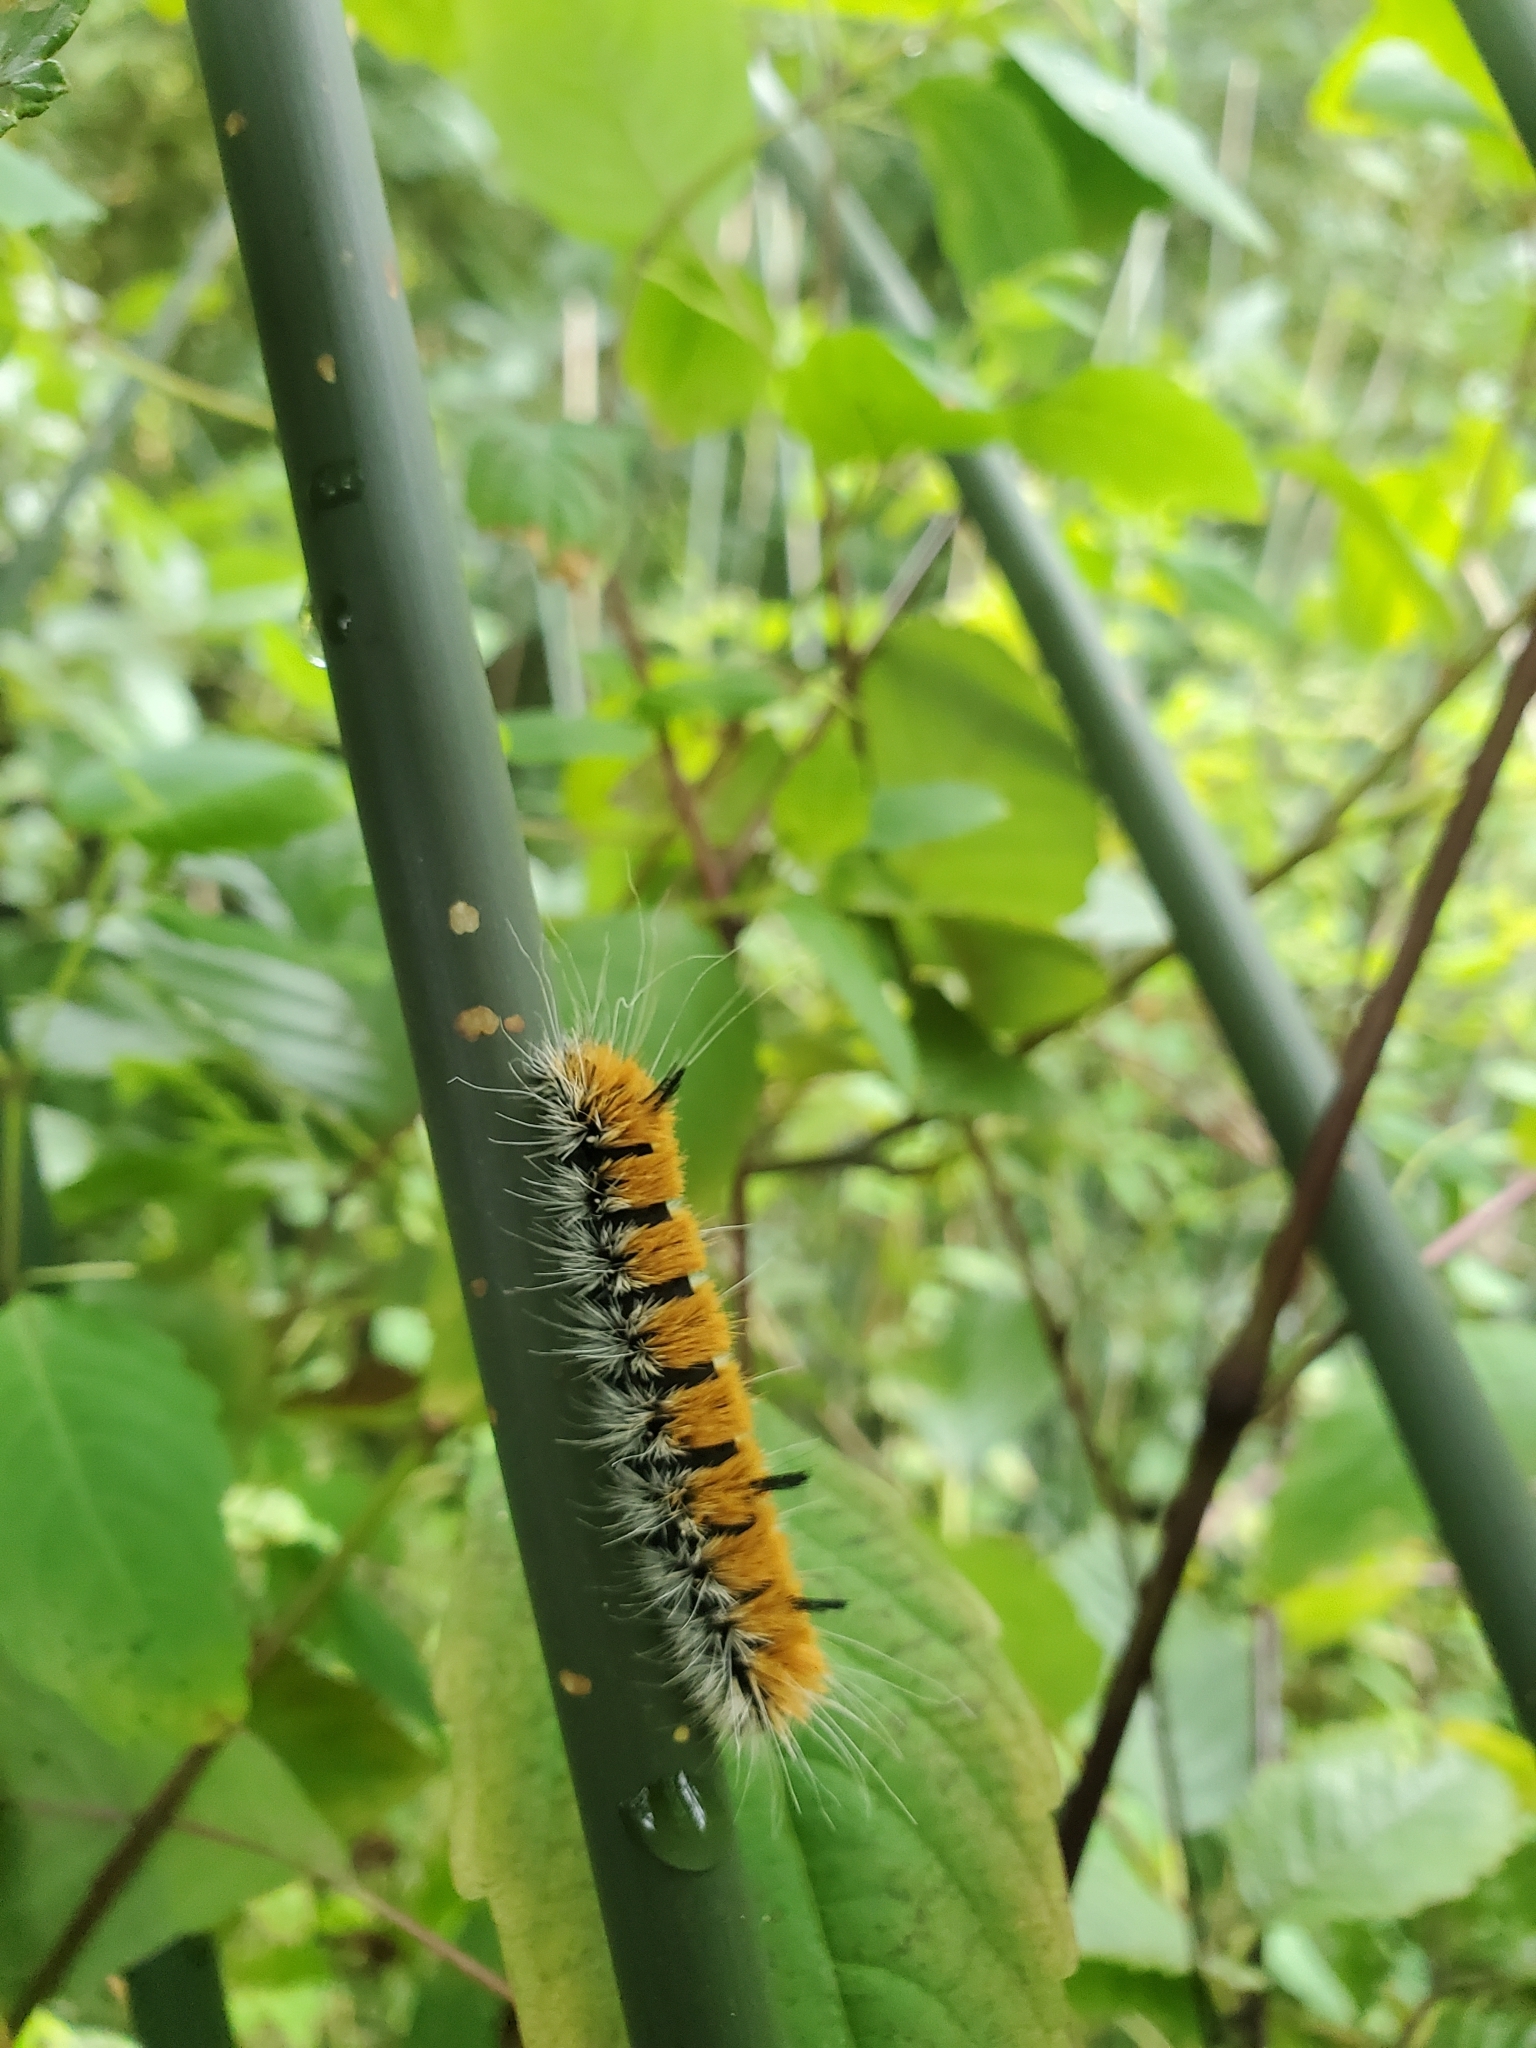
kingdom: Animalia
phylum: Arthropoda
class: Insecta
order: Lepidoptera
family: Noctuidae
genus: Acronicta
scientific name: Acronicta insita
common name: Large gray dagger
